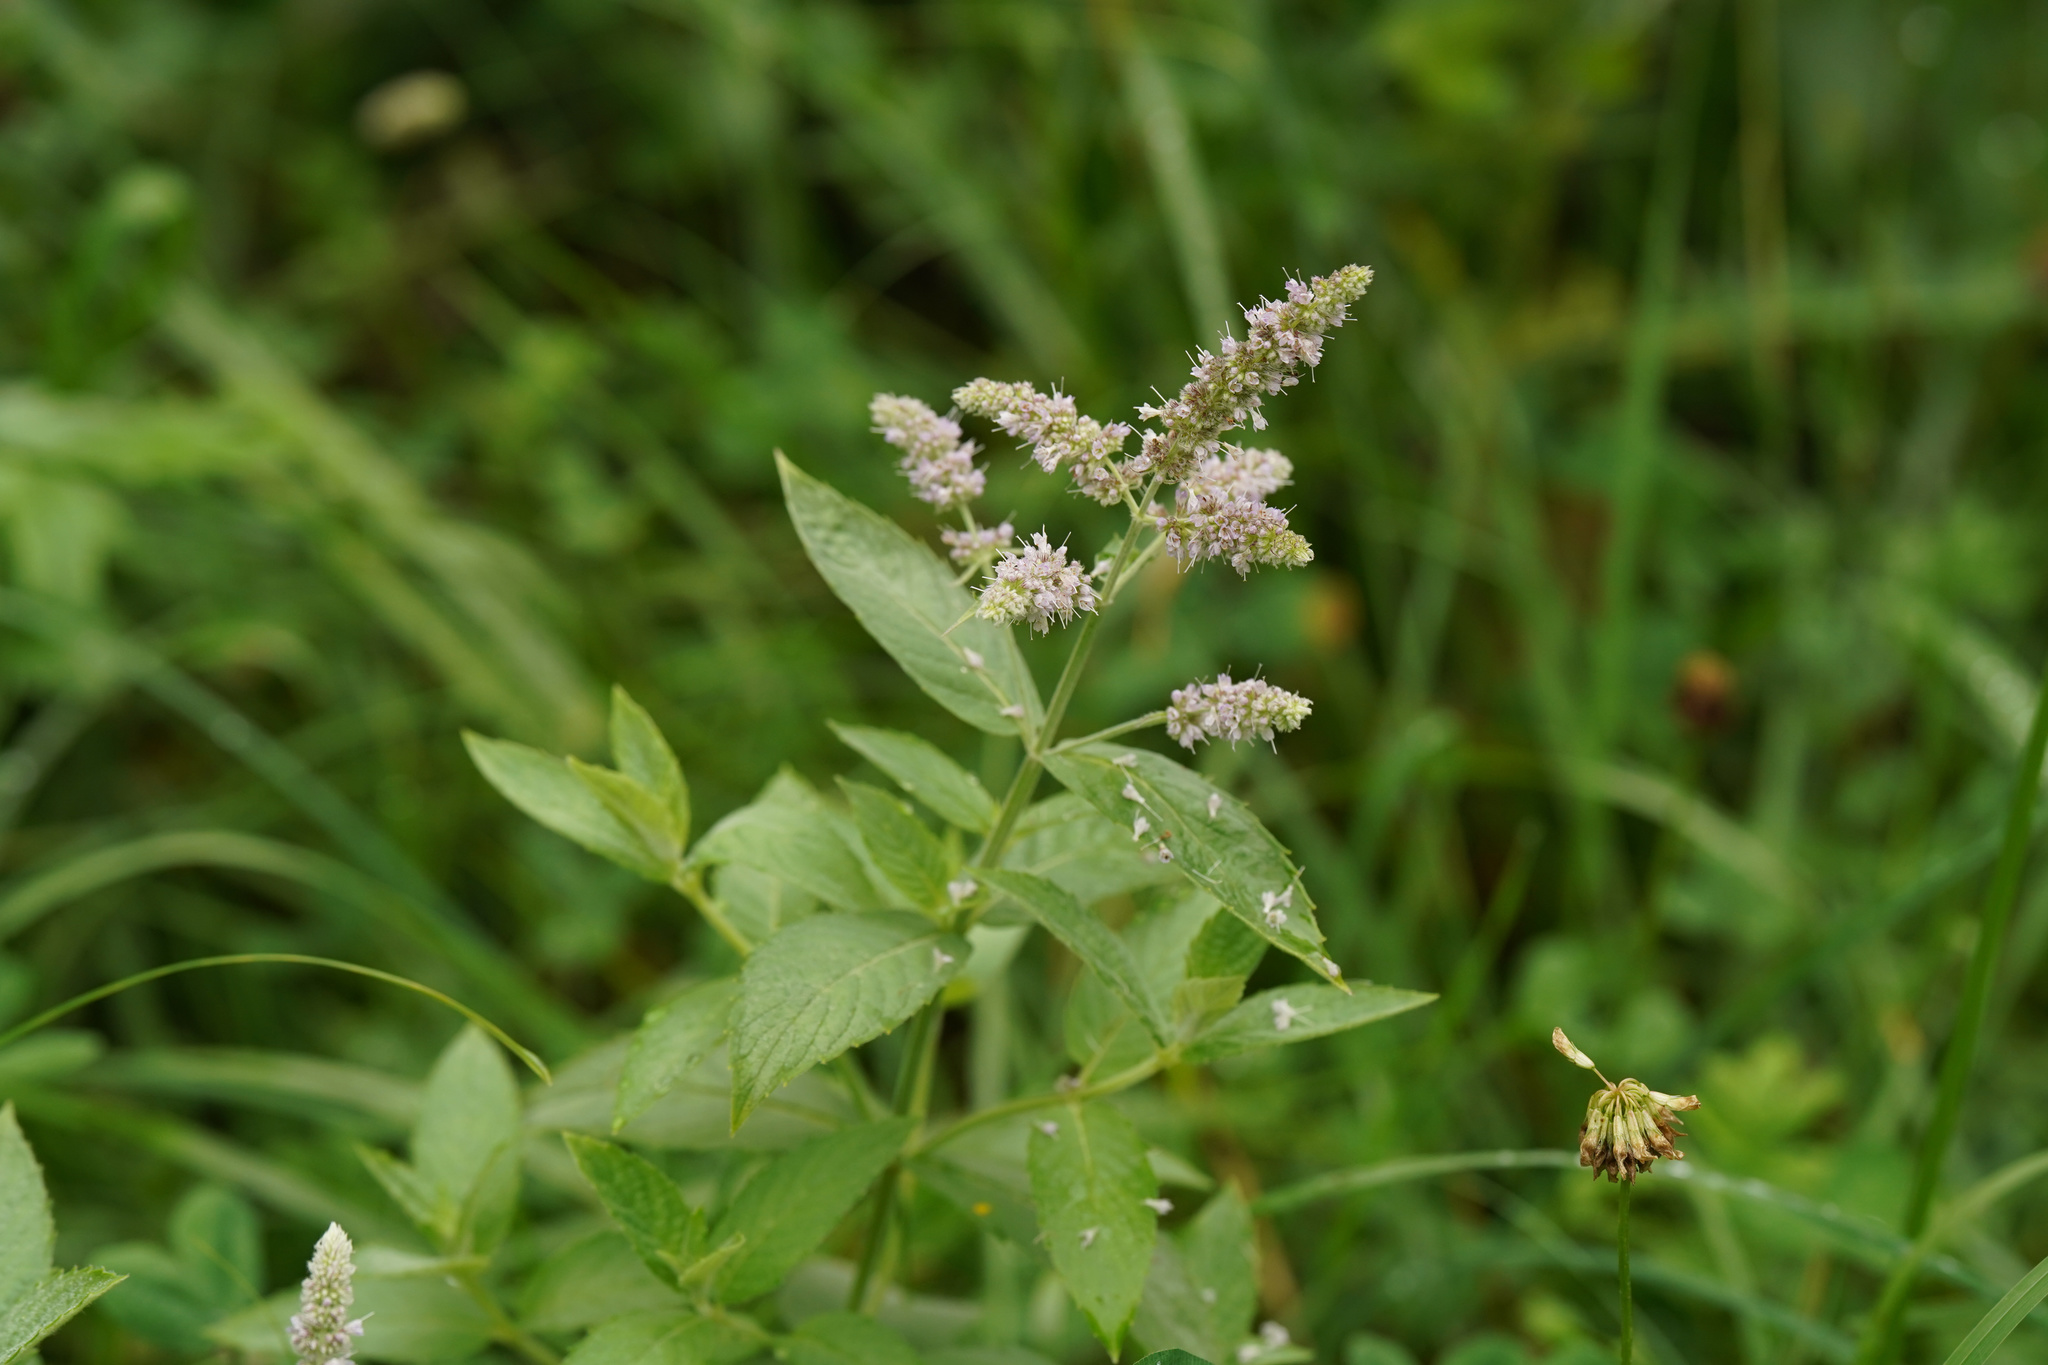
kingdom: Plantae
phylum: Tracheophyta
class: Magnoliopsida
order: Lamiales
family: Lamiaceae
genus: Mentha
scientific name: Mentha longifolia
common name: Horse mint
